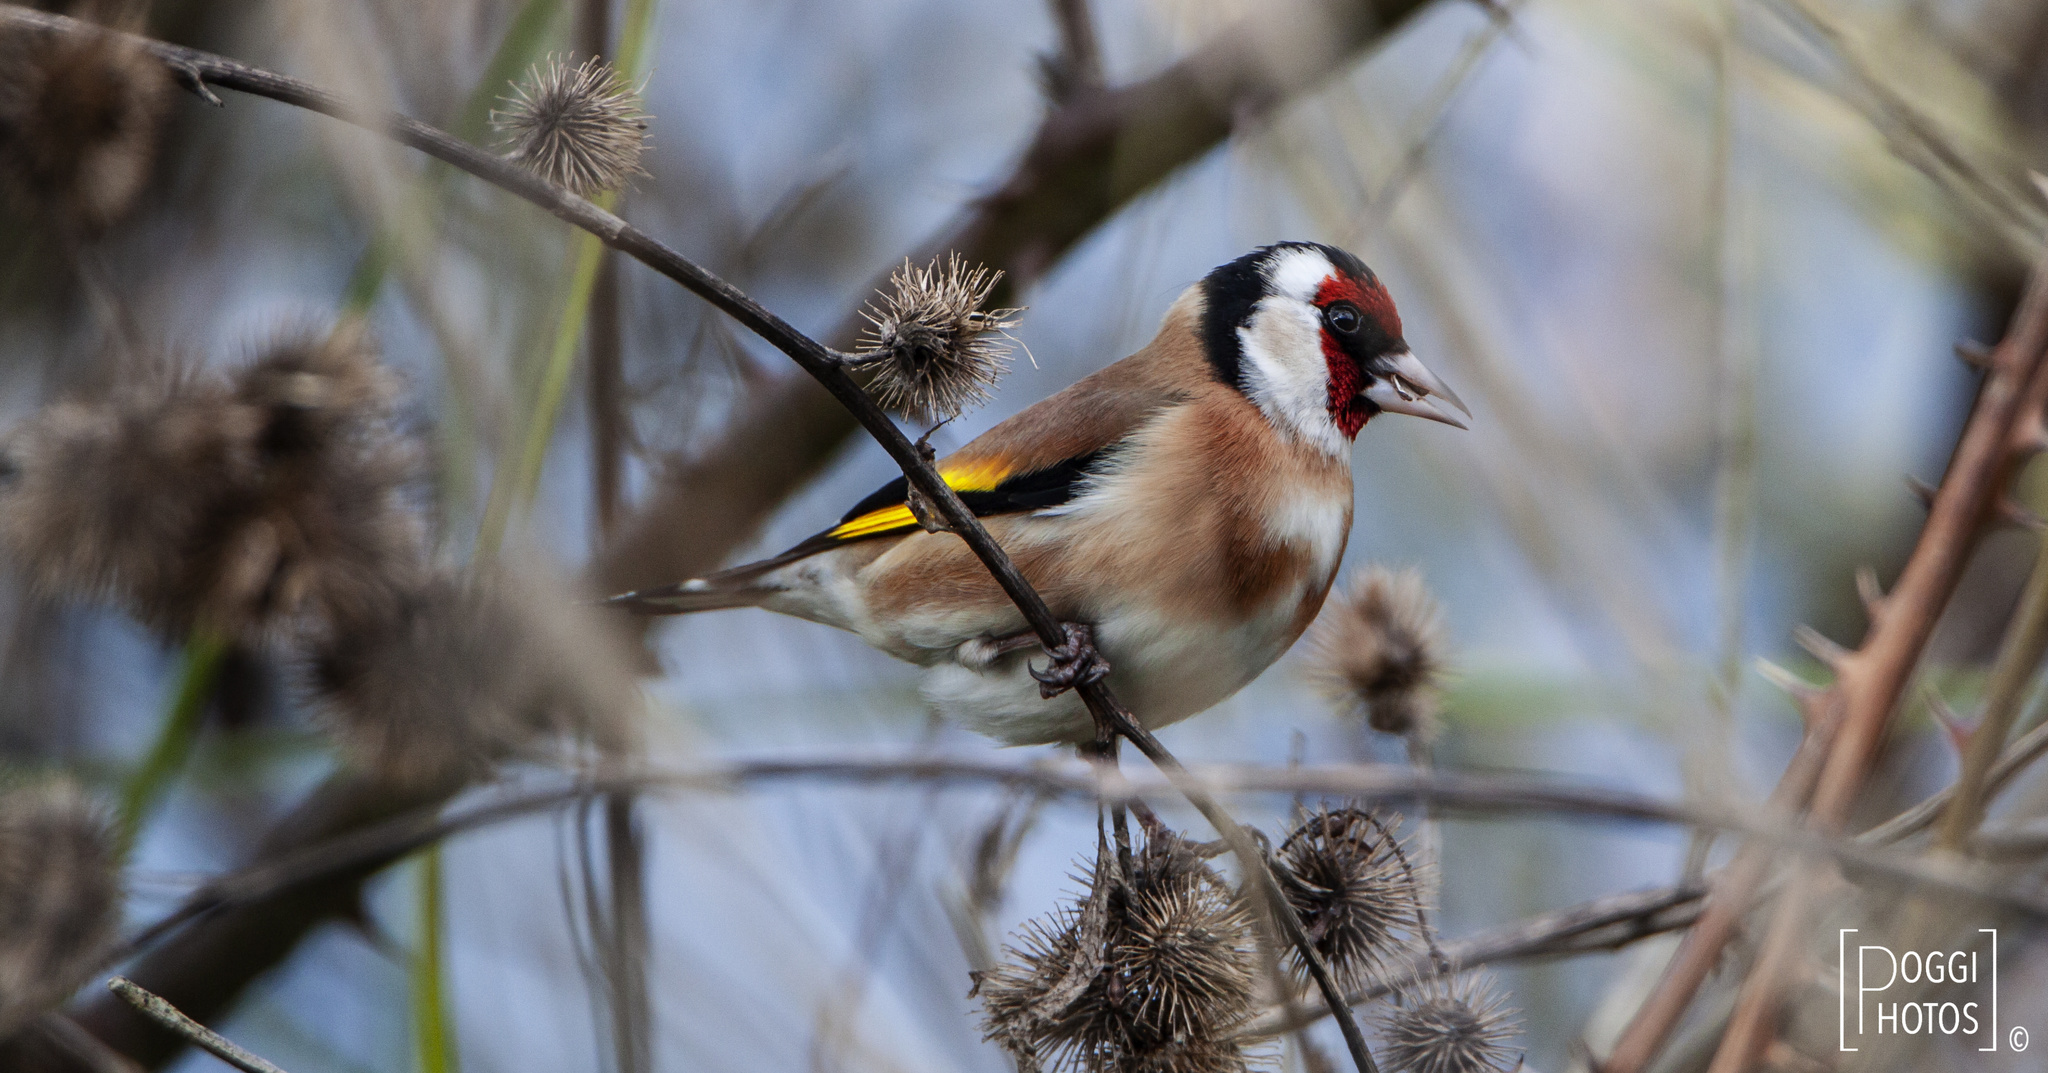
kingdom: Animalia
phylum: Chordata
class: Aves
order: Passeriformes
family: Fringillidae
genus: Carduelis
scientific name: Carduelis carduelis
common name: European goldfinch
